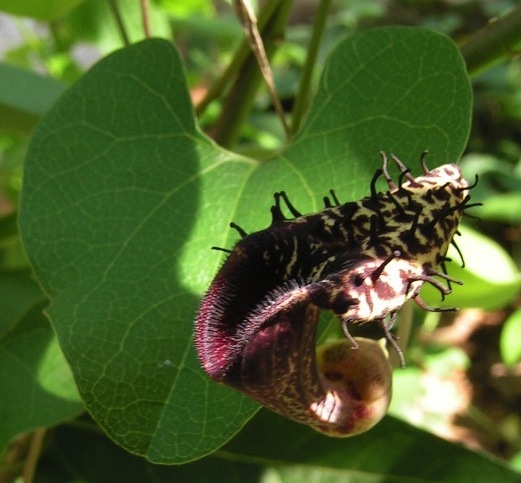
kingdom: Plantae
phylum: Tracheophyta
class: Magnoliopsida
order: Piperales
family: Aristolochiaceae
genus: Aristolochia
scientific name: Aristolochia taliscana
